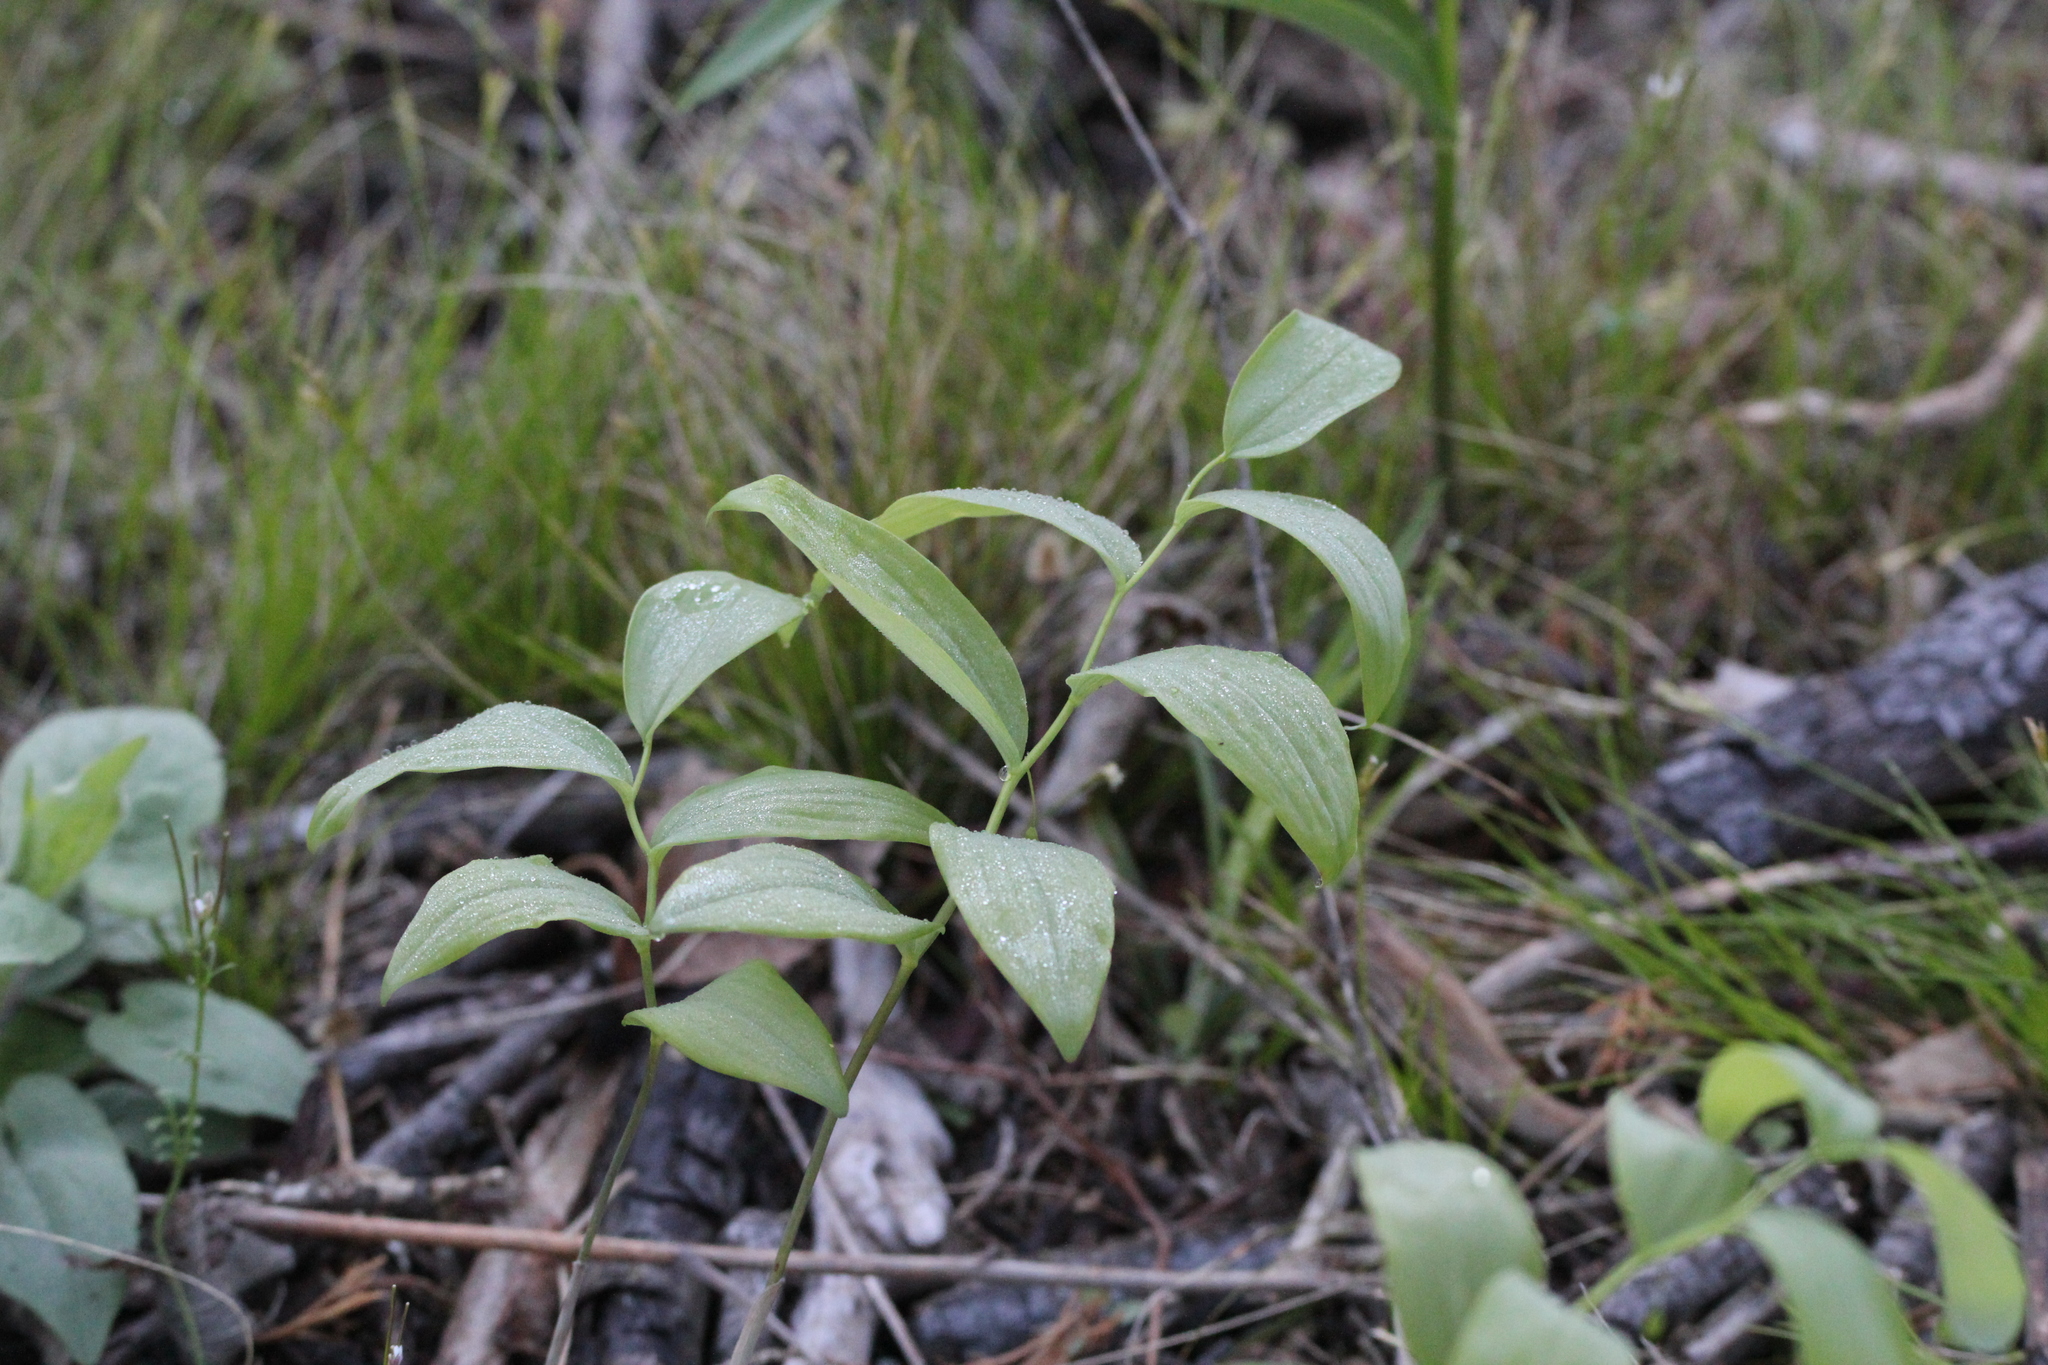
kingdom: Plantae
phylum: Tracheophyta
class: Liliopsida
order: Asparagales
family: Asparagaceae
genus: Polygonatum
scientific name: Polygonatum pubescens
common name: Downy solomon's seal
